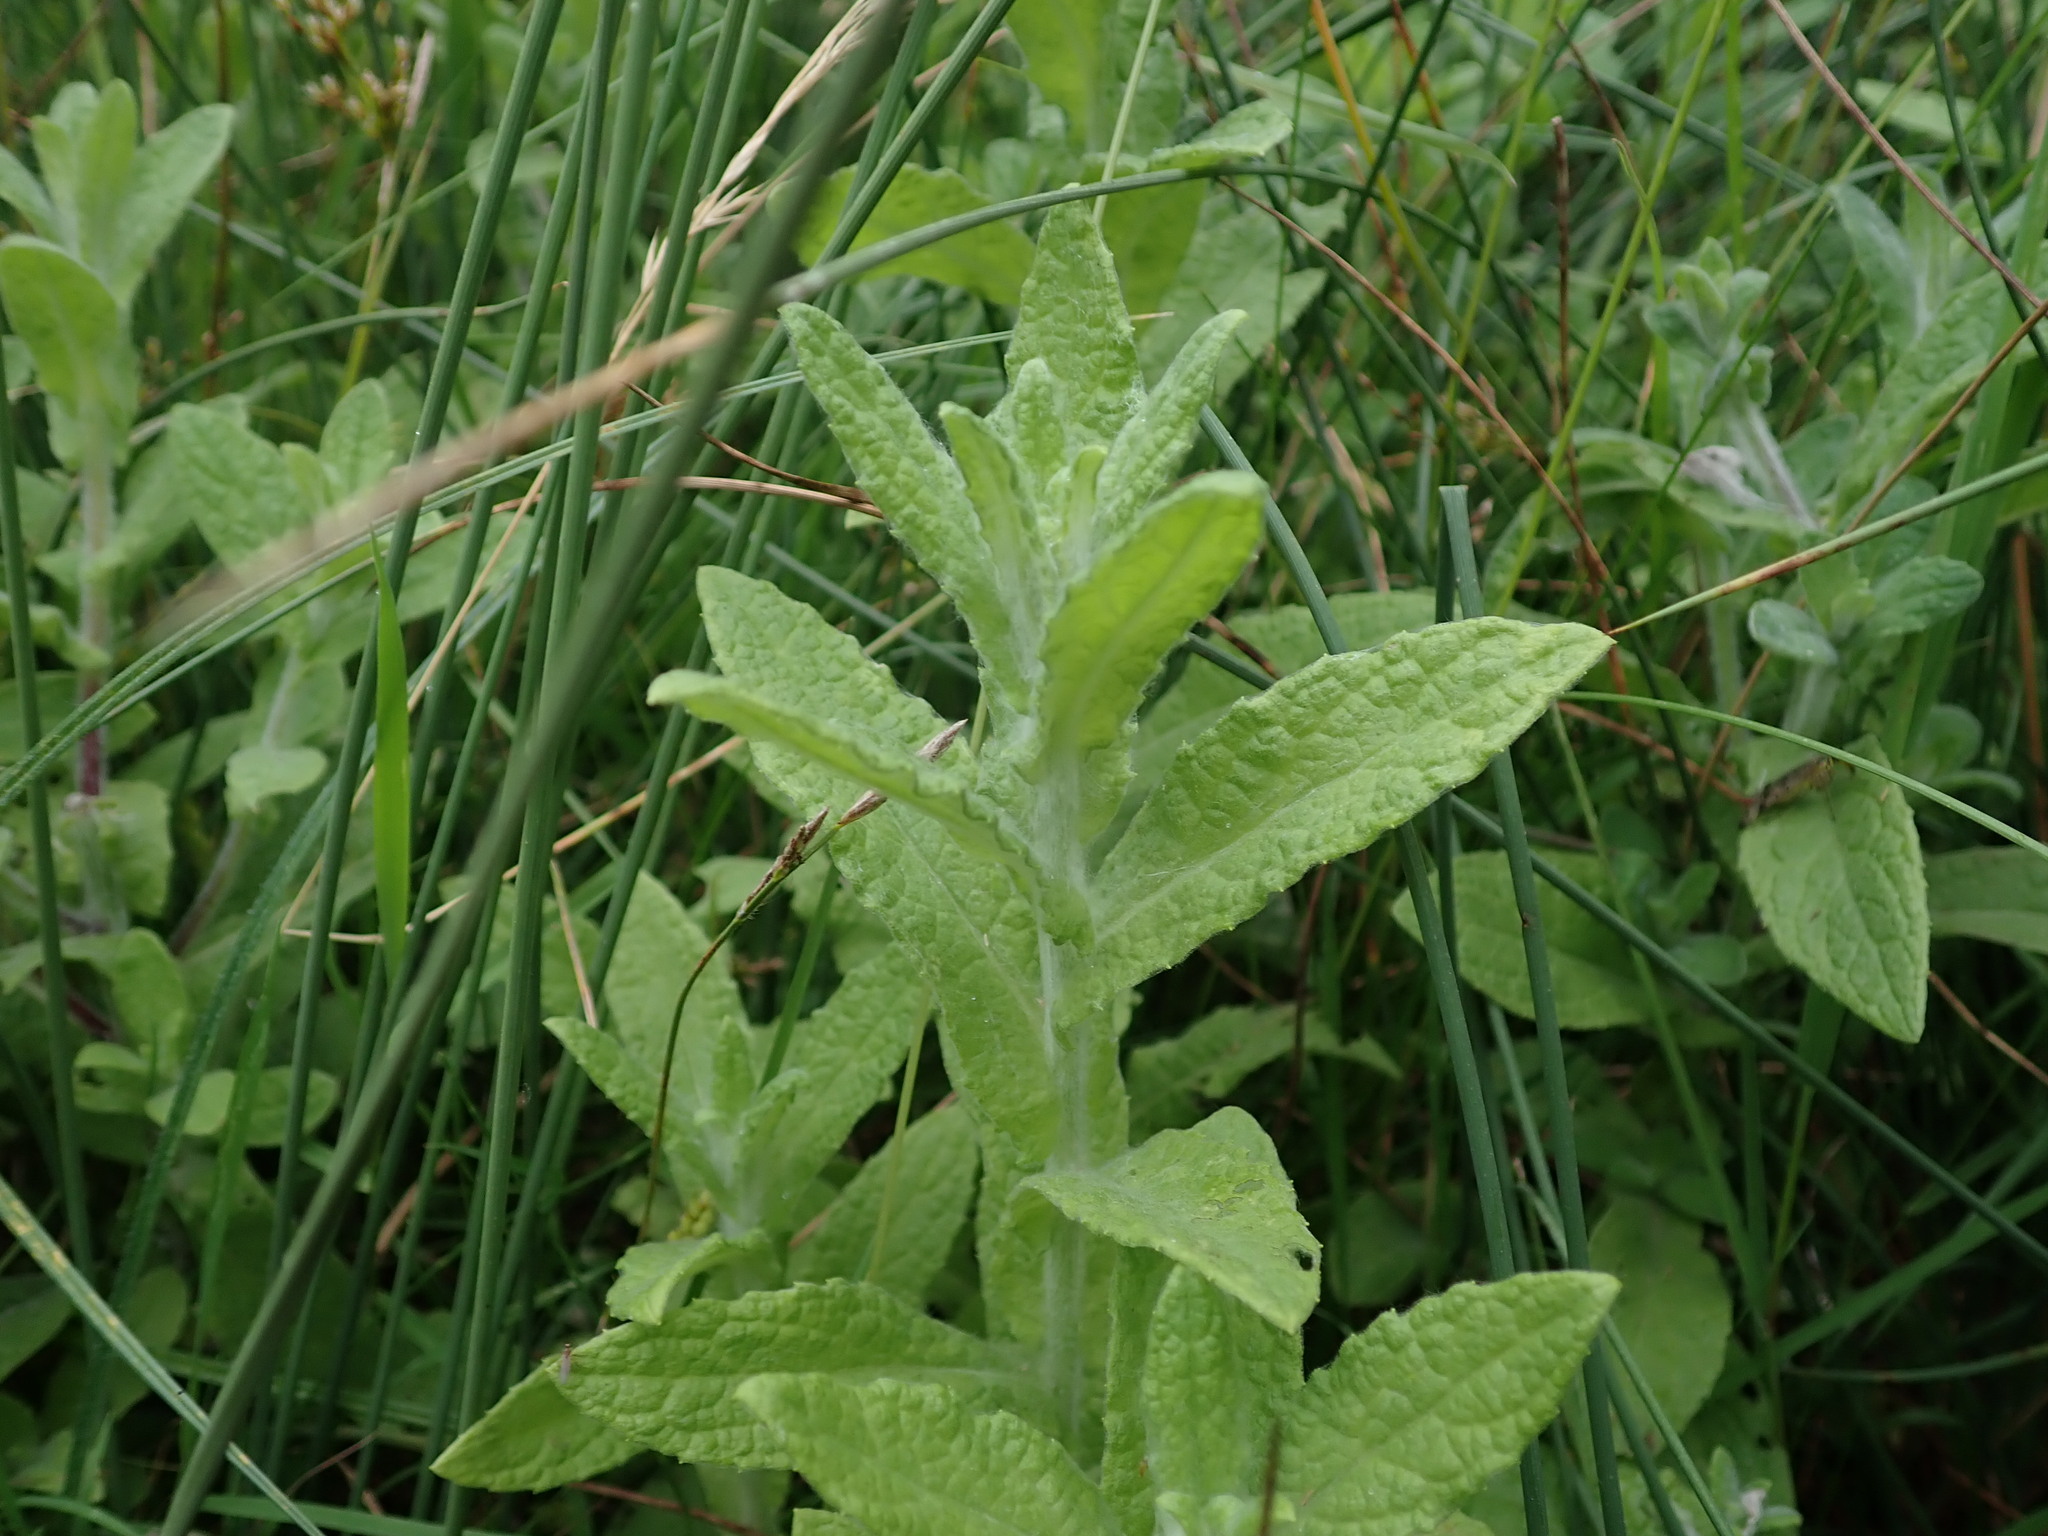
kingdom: Plantae
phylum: Tracheophyta
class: Magnoliopsida
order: Asterales
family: Asteraceae
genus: Pulicaria
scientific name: Pulicaria dysenterica
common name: Common fleabane
